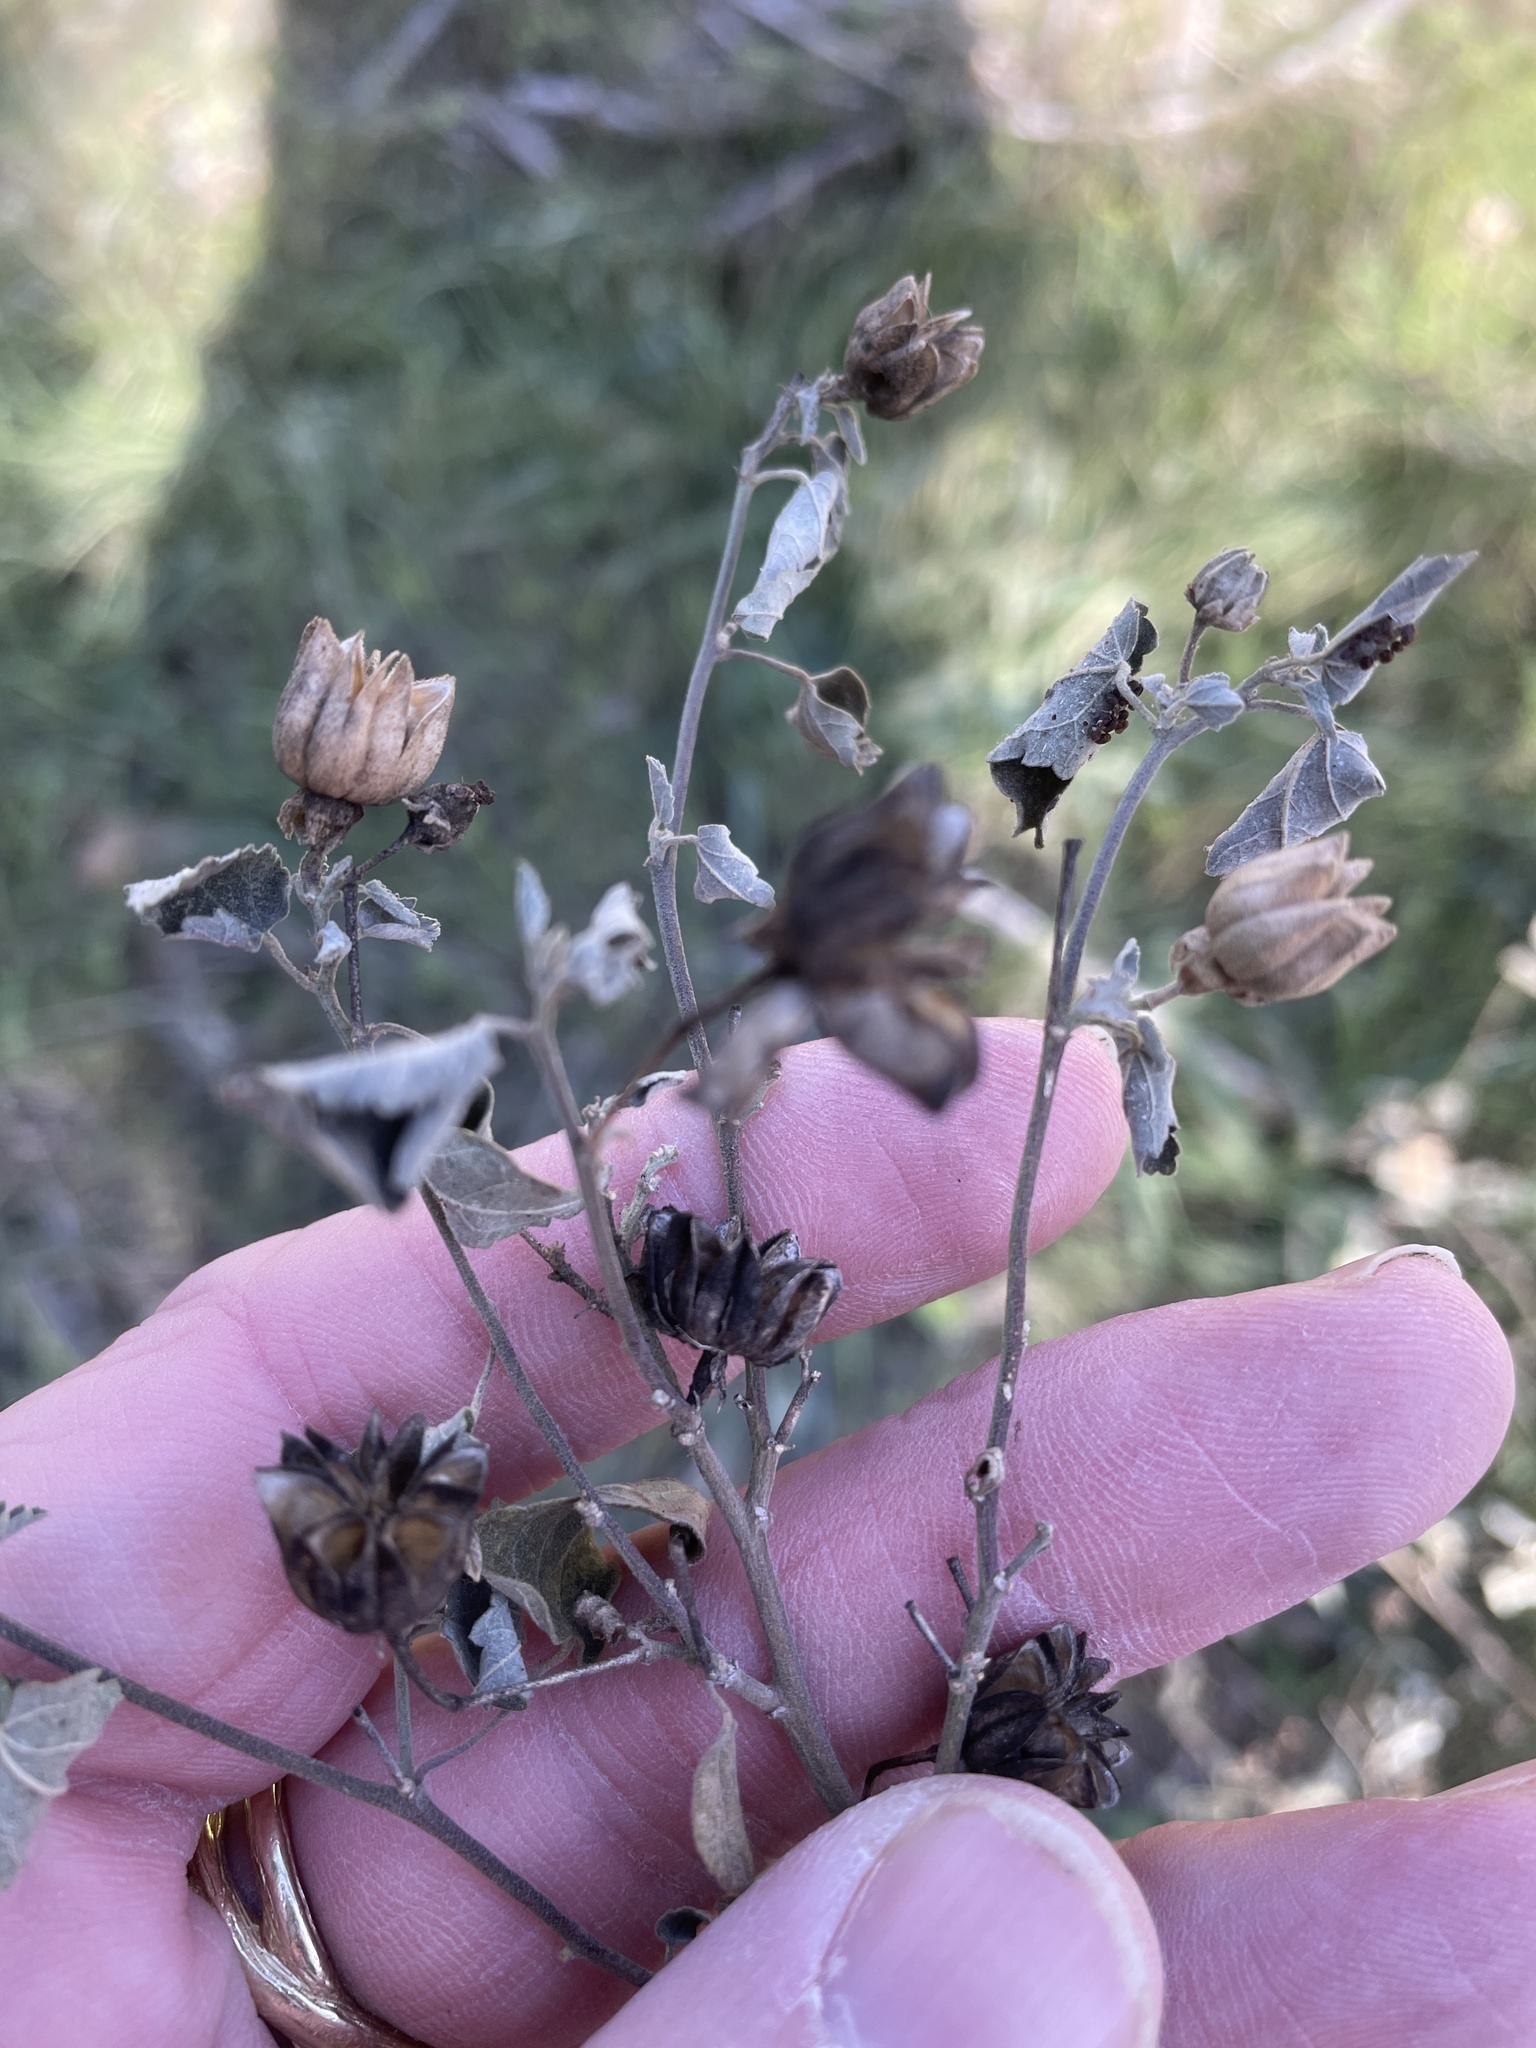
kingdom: Plantae
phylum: Tracheophyta
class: Magnoliopsida
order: Malvales
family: Malvaceae
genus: Abutilon
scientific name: Abutilon fruticosum
